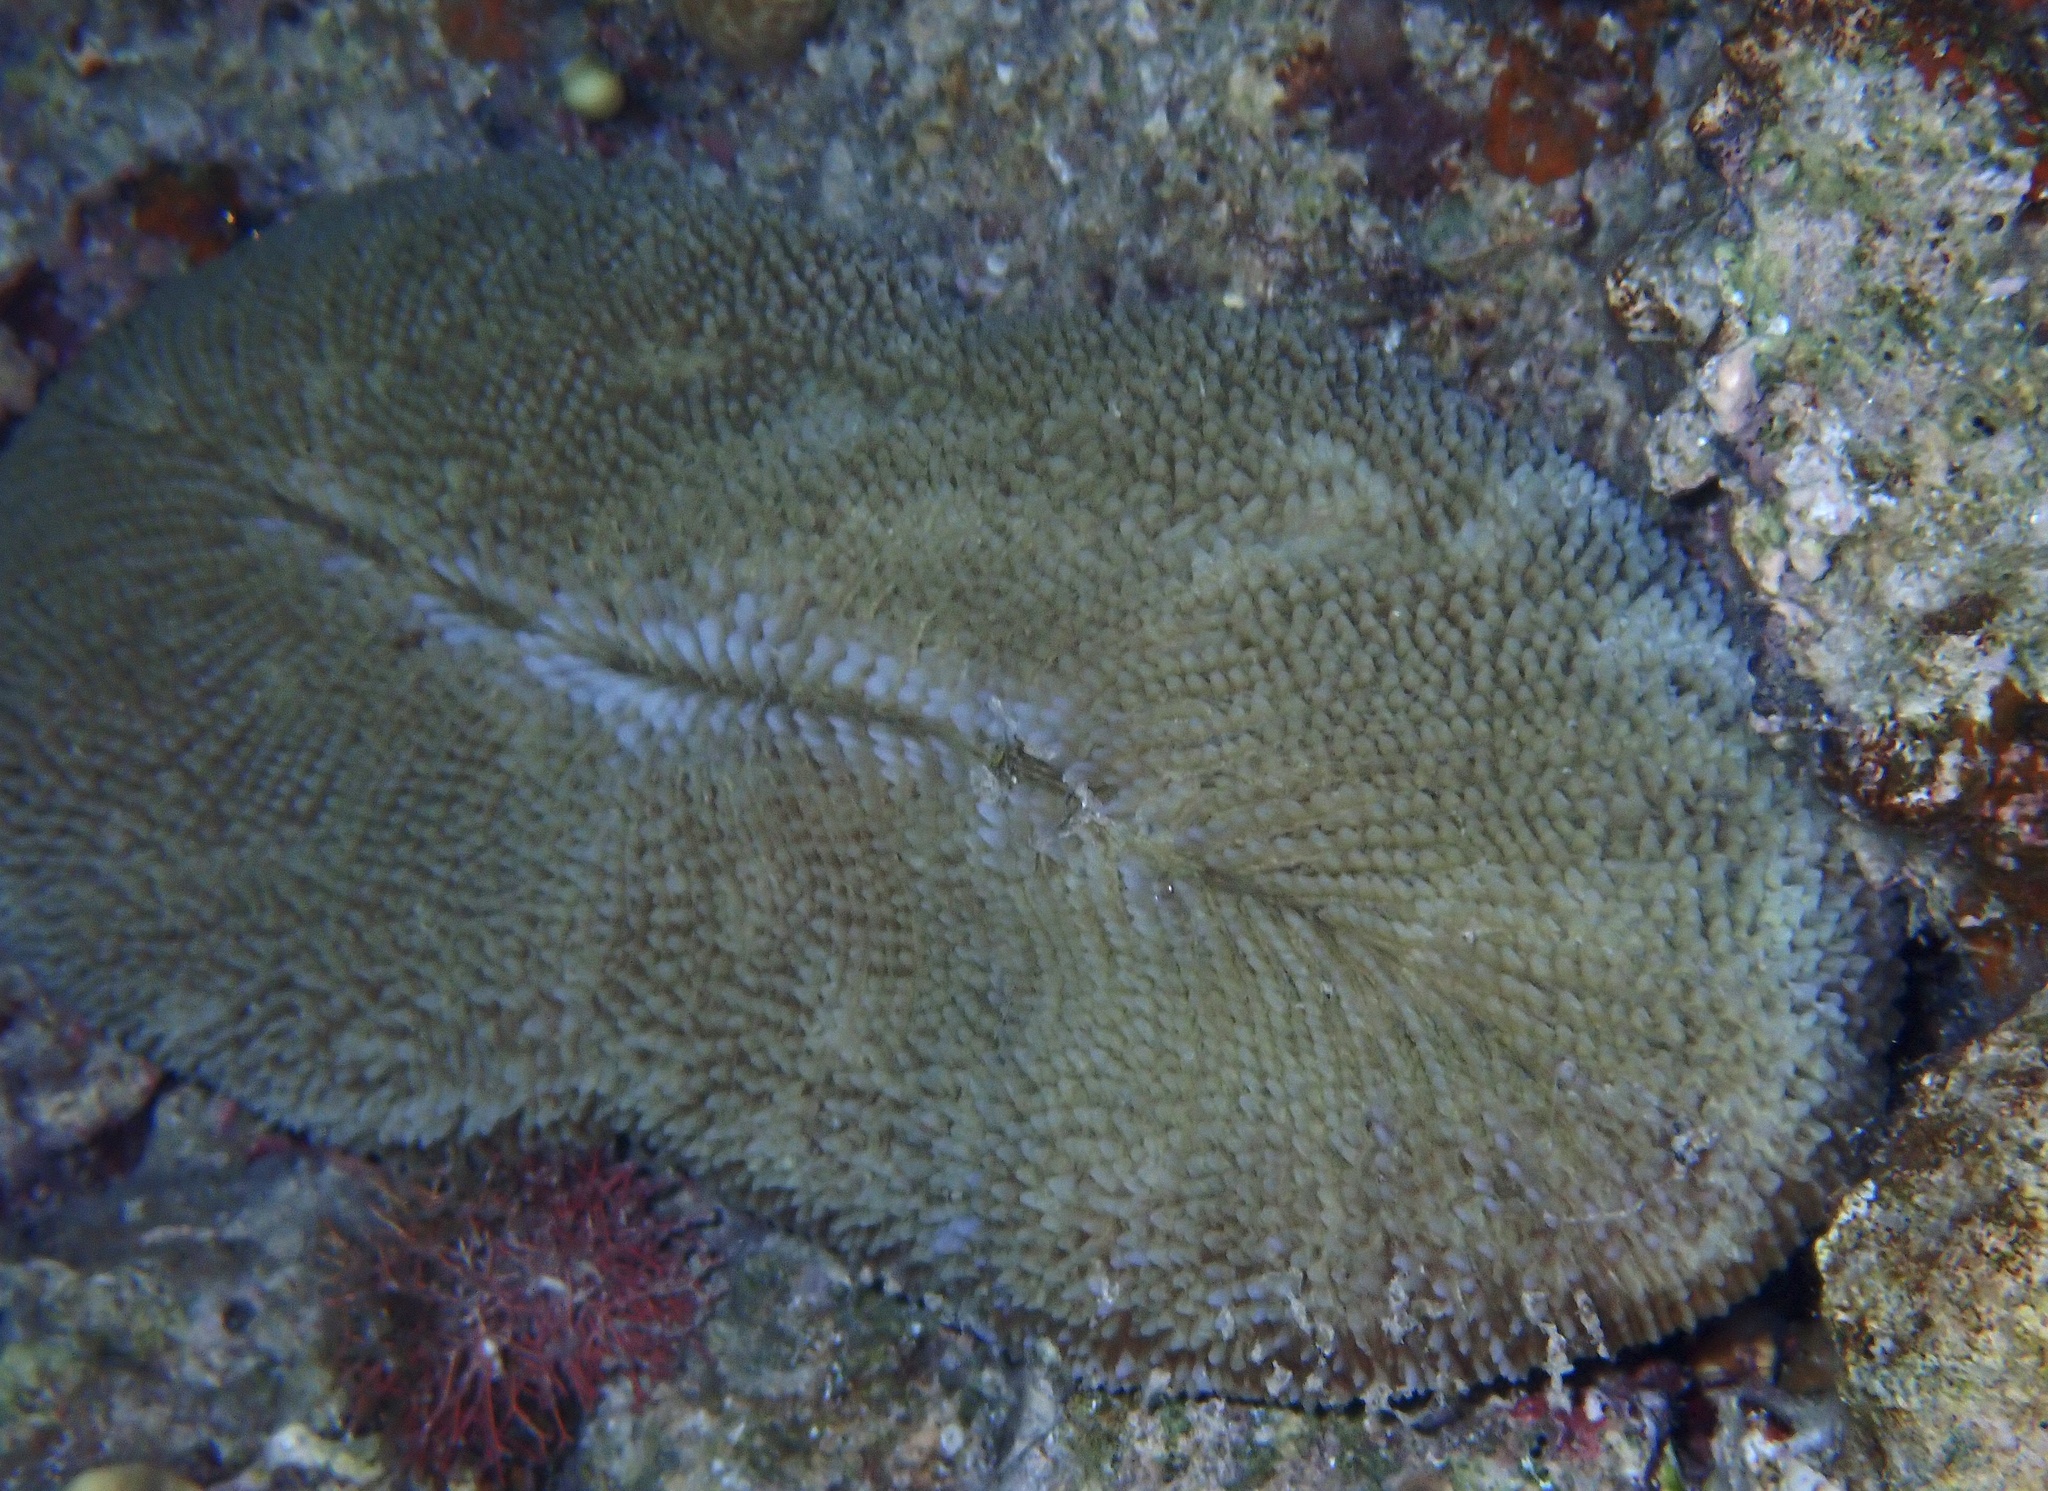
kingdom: Animalia
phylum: Cnidaria
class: Anthozoa
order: Scleractinia
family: Fungiidae
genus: Ctenactis
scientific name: Ctenactis crassa
